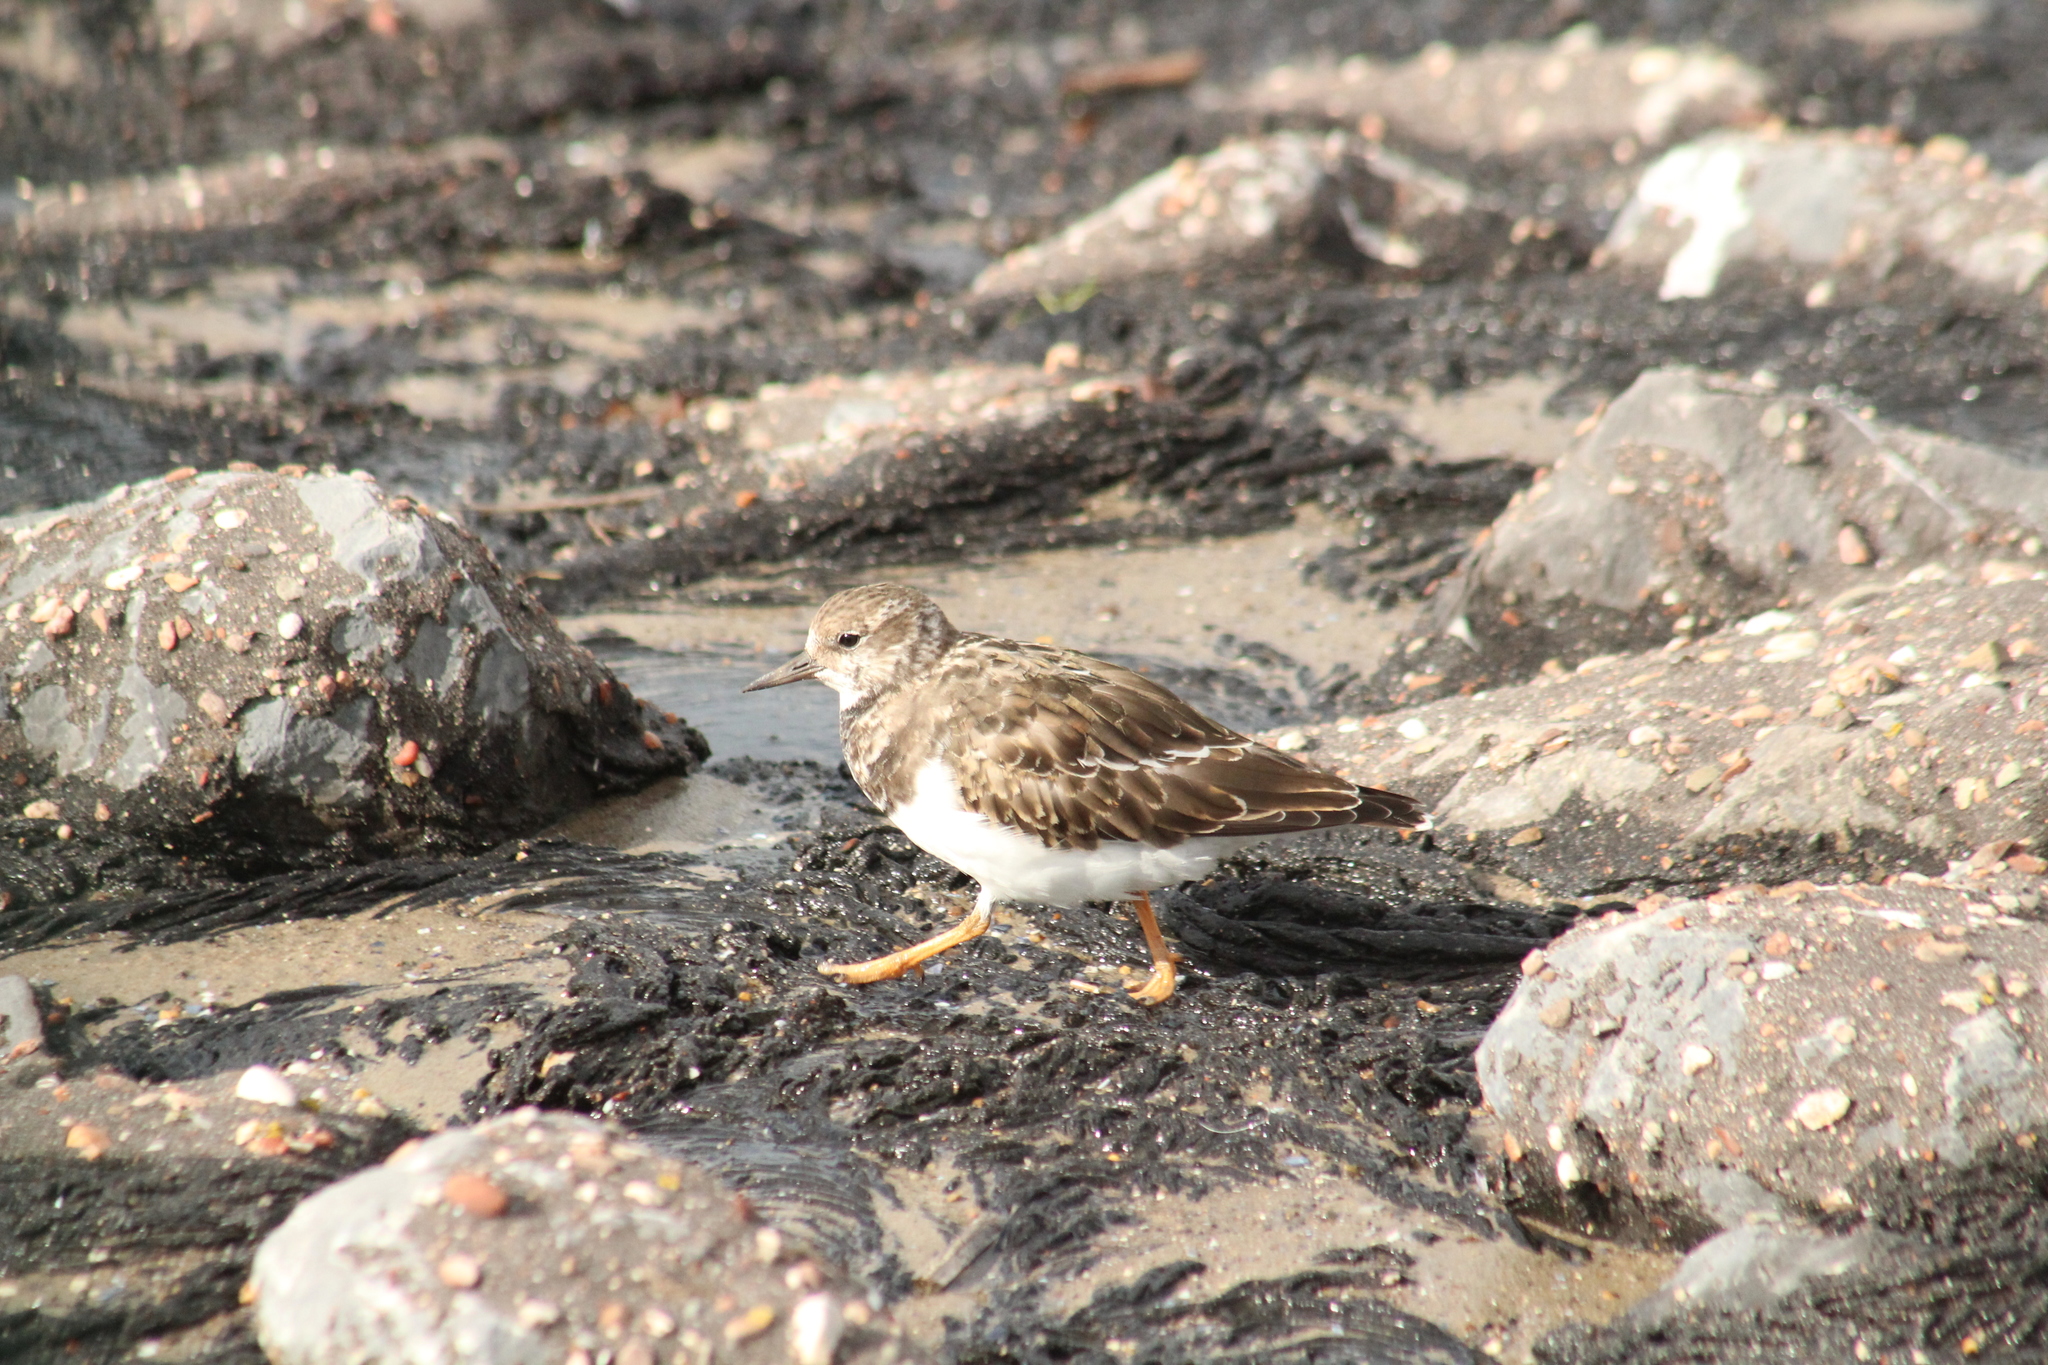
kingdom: Animalia
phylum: Chordata
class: Aves
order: Charadriiformes
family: Scolopacidae
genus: Arenaria
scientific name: Arenaria interpres
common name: Ruddy turnstone
